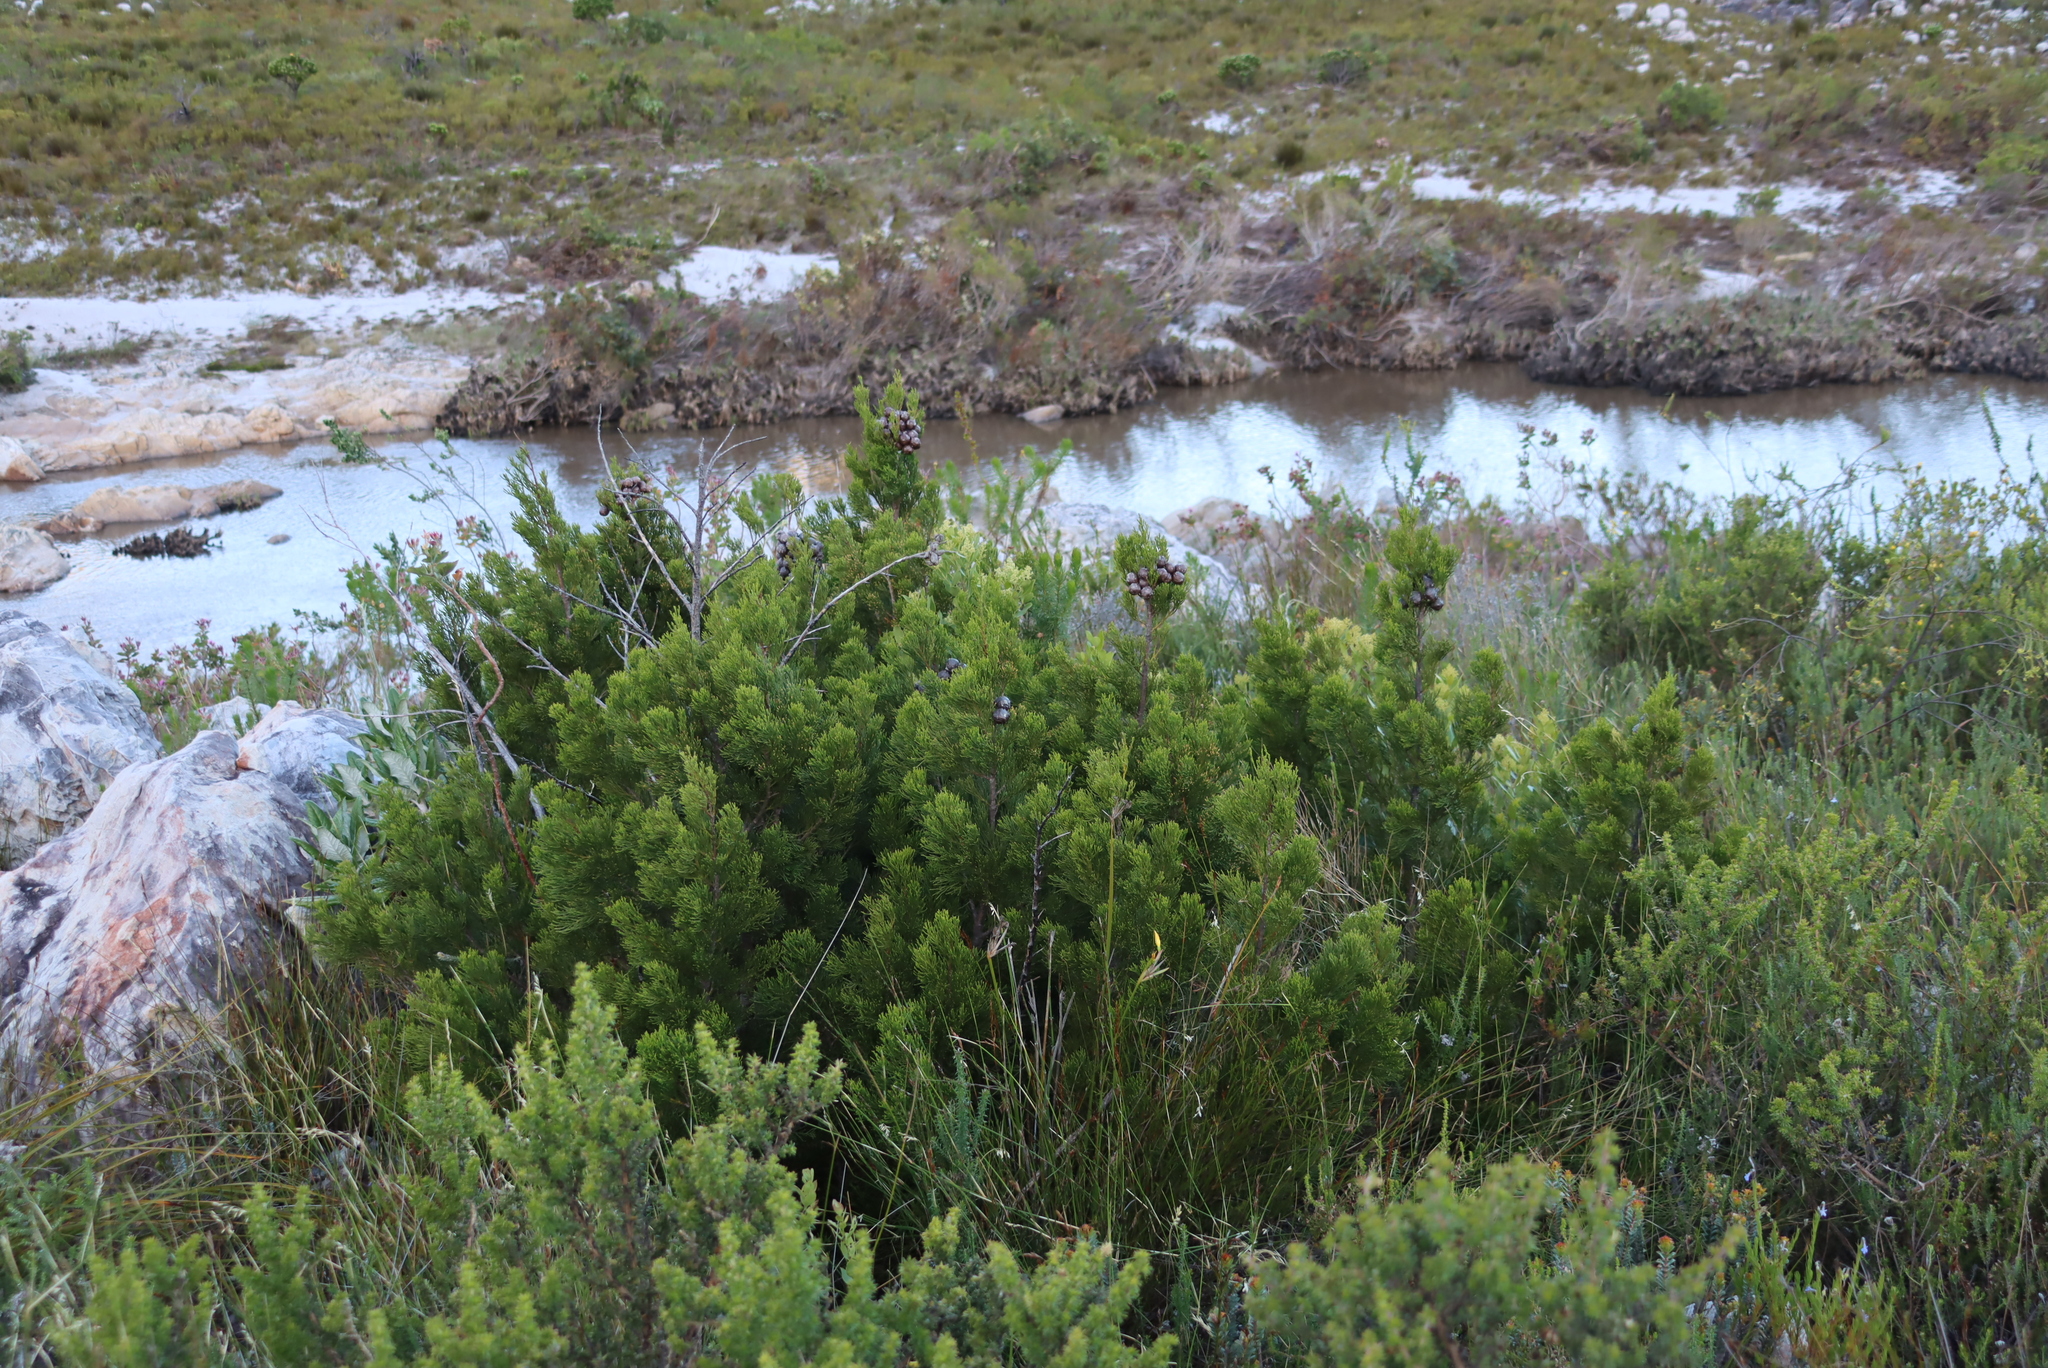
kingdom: Plantae
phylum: Tracheophyta
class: Pinopsida
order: Pinales
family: Cupressaceae
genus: Widdringtonia
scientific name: Widdringtonia nodiflora
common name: Cape cypress
